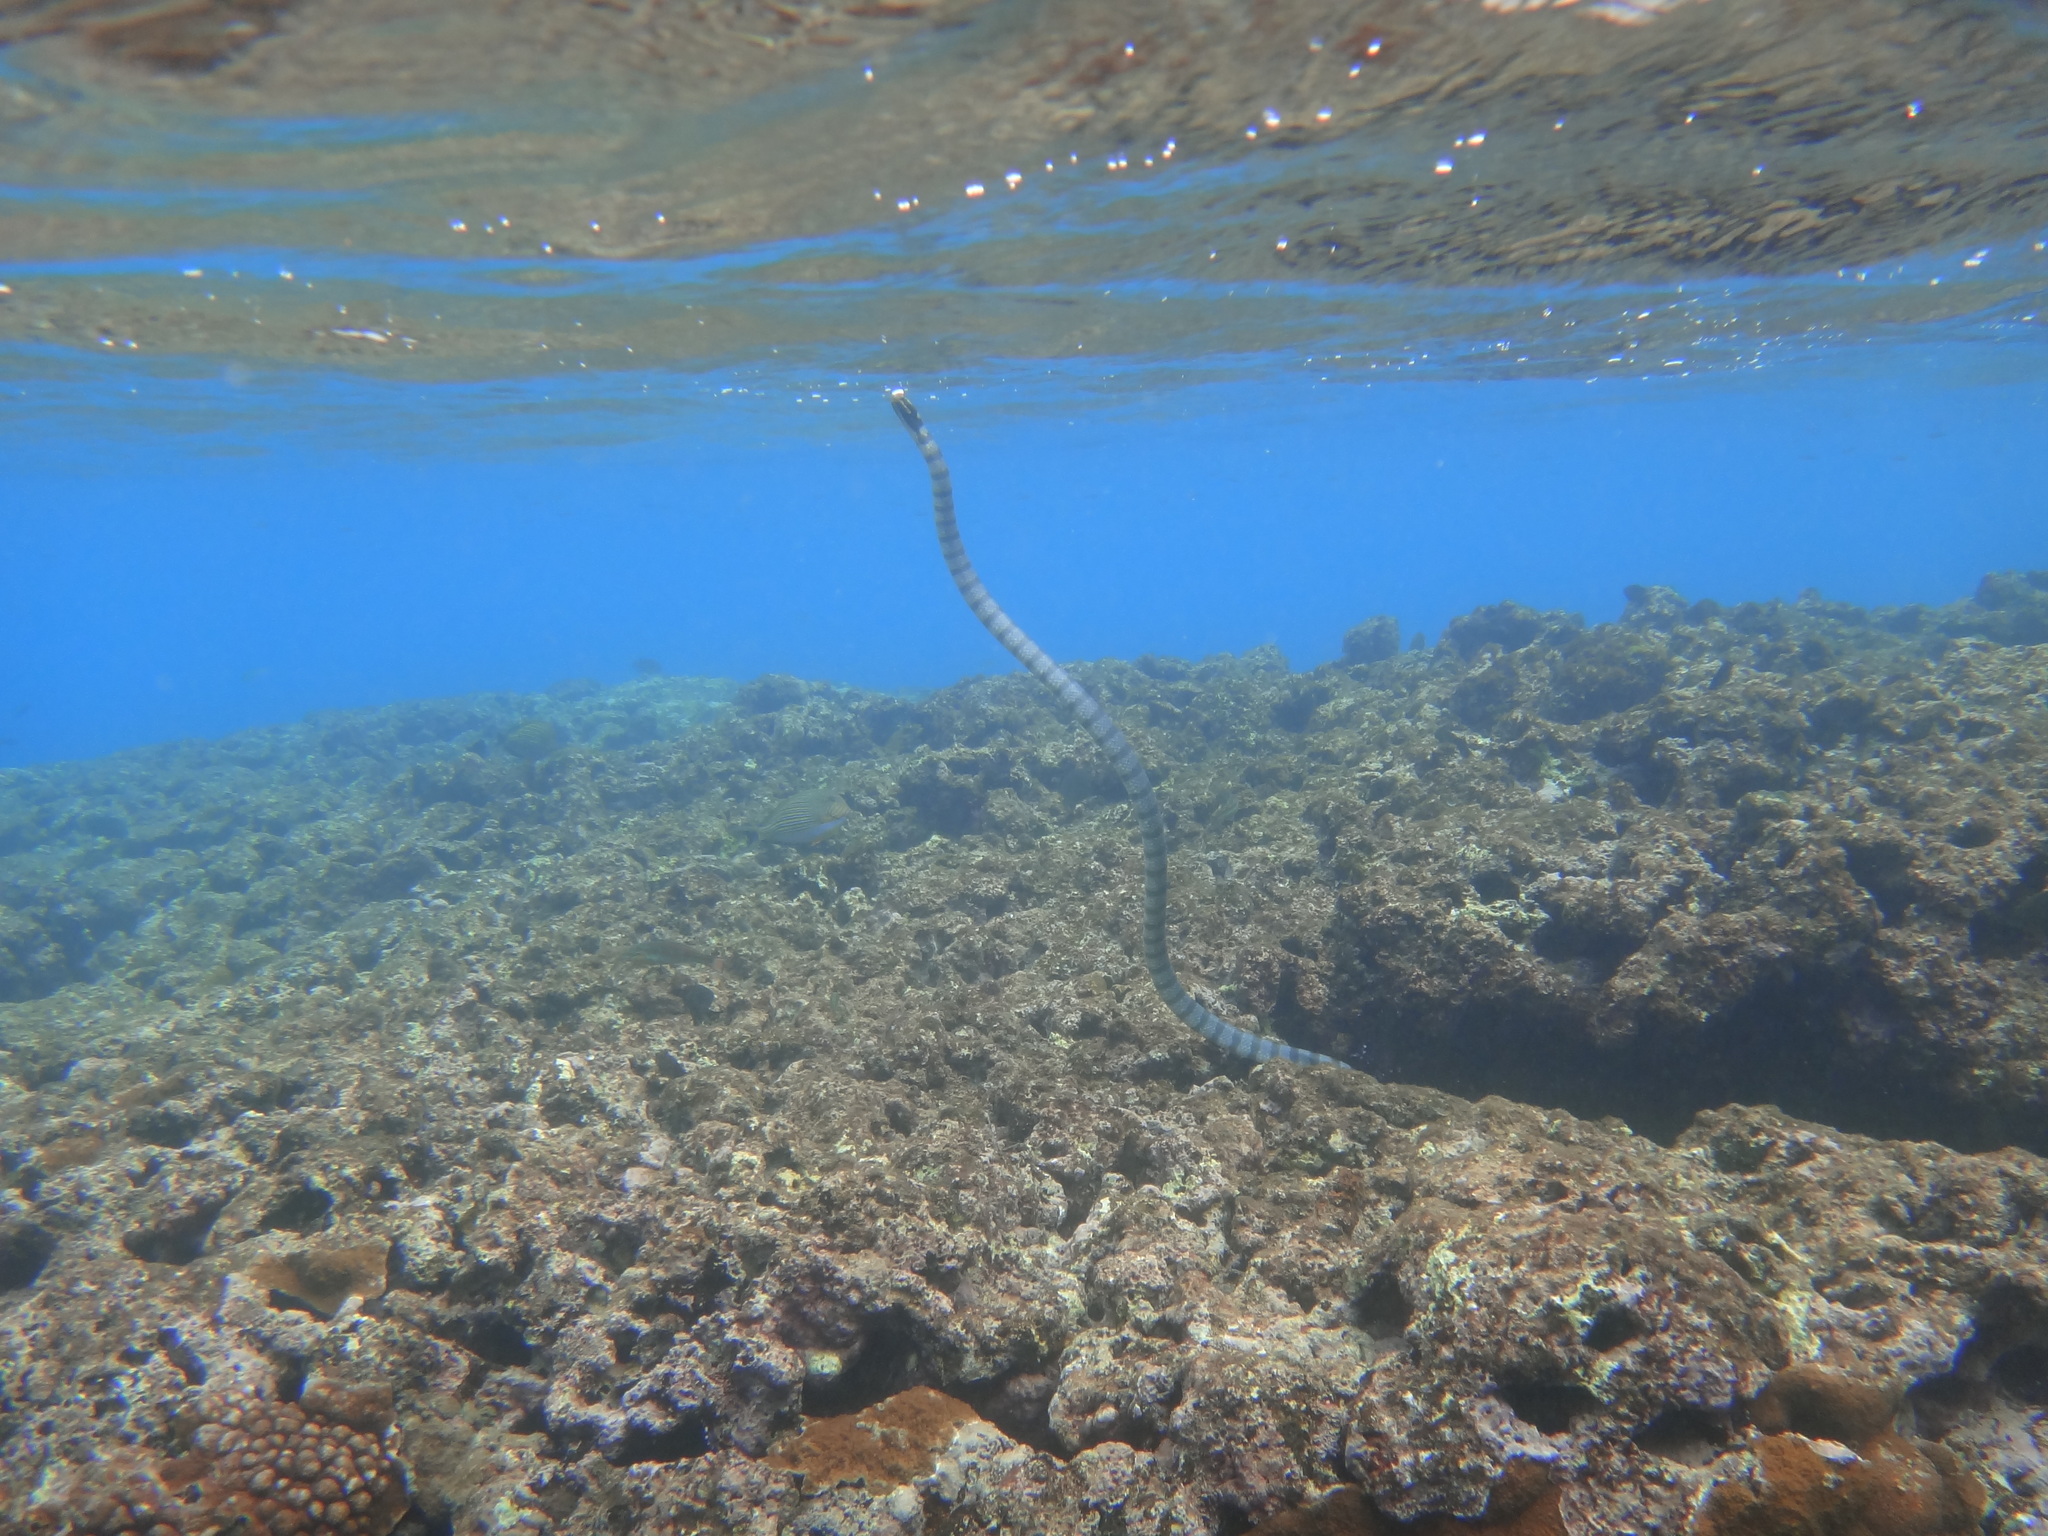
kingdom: Animalia
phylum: Chordata
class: Squamata
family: Elapidae
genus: Laticauda
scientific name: Laticauda colubrina
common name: Yellow-lipped sea krait
